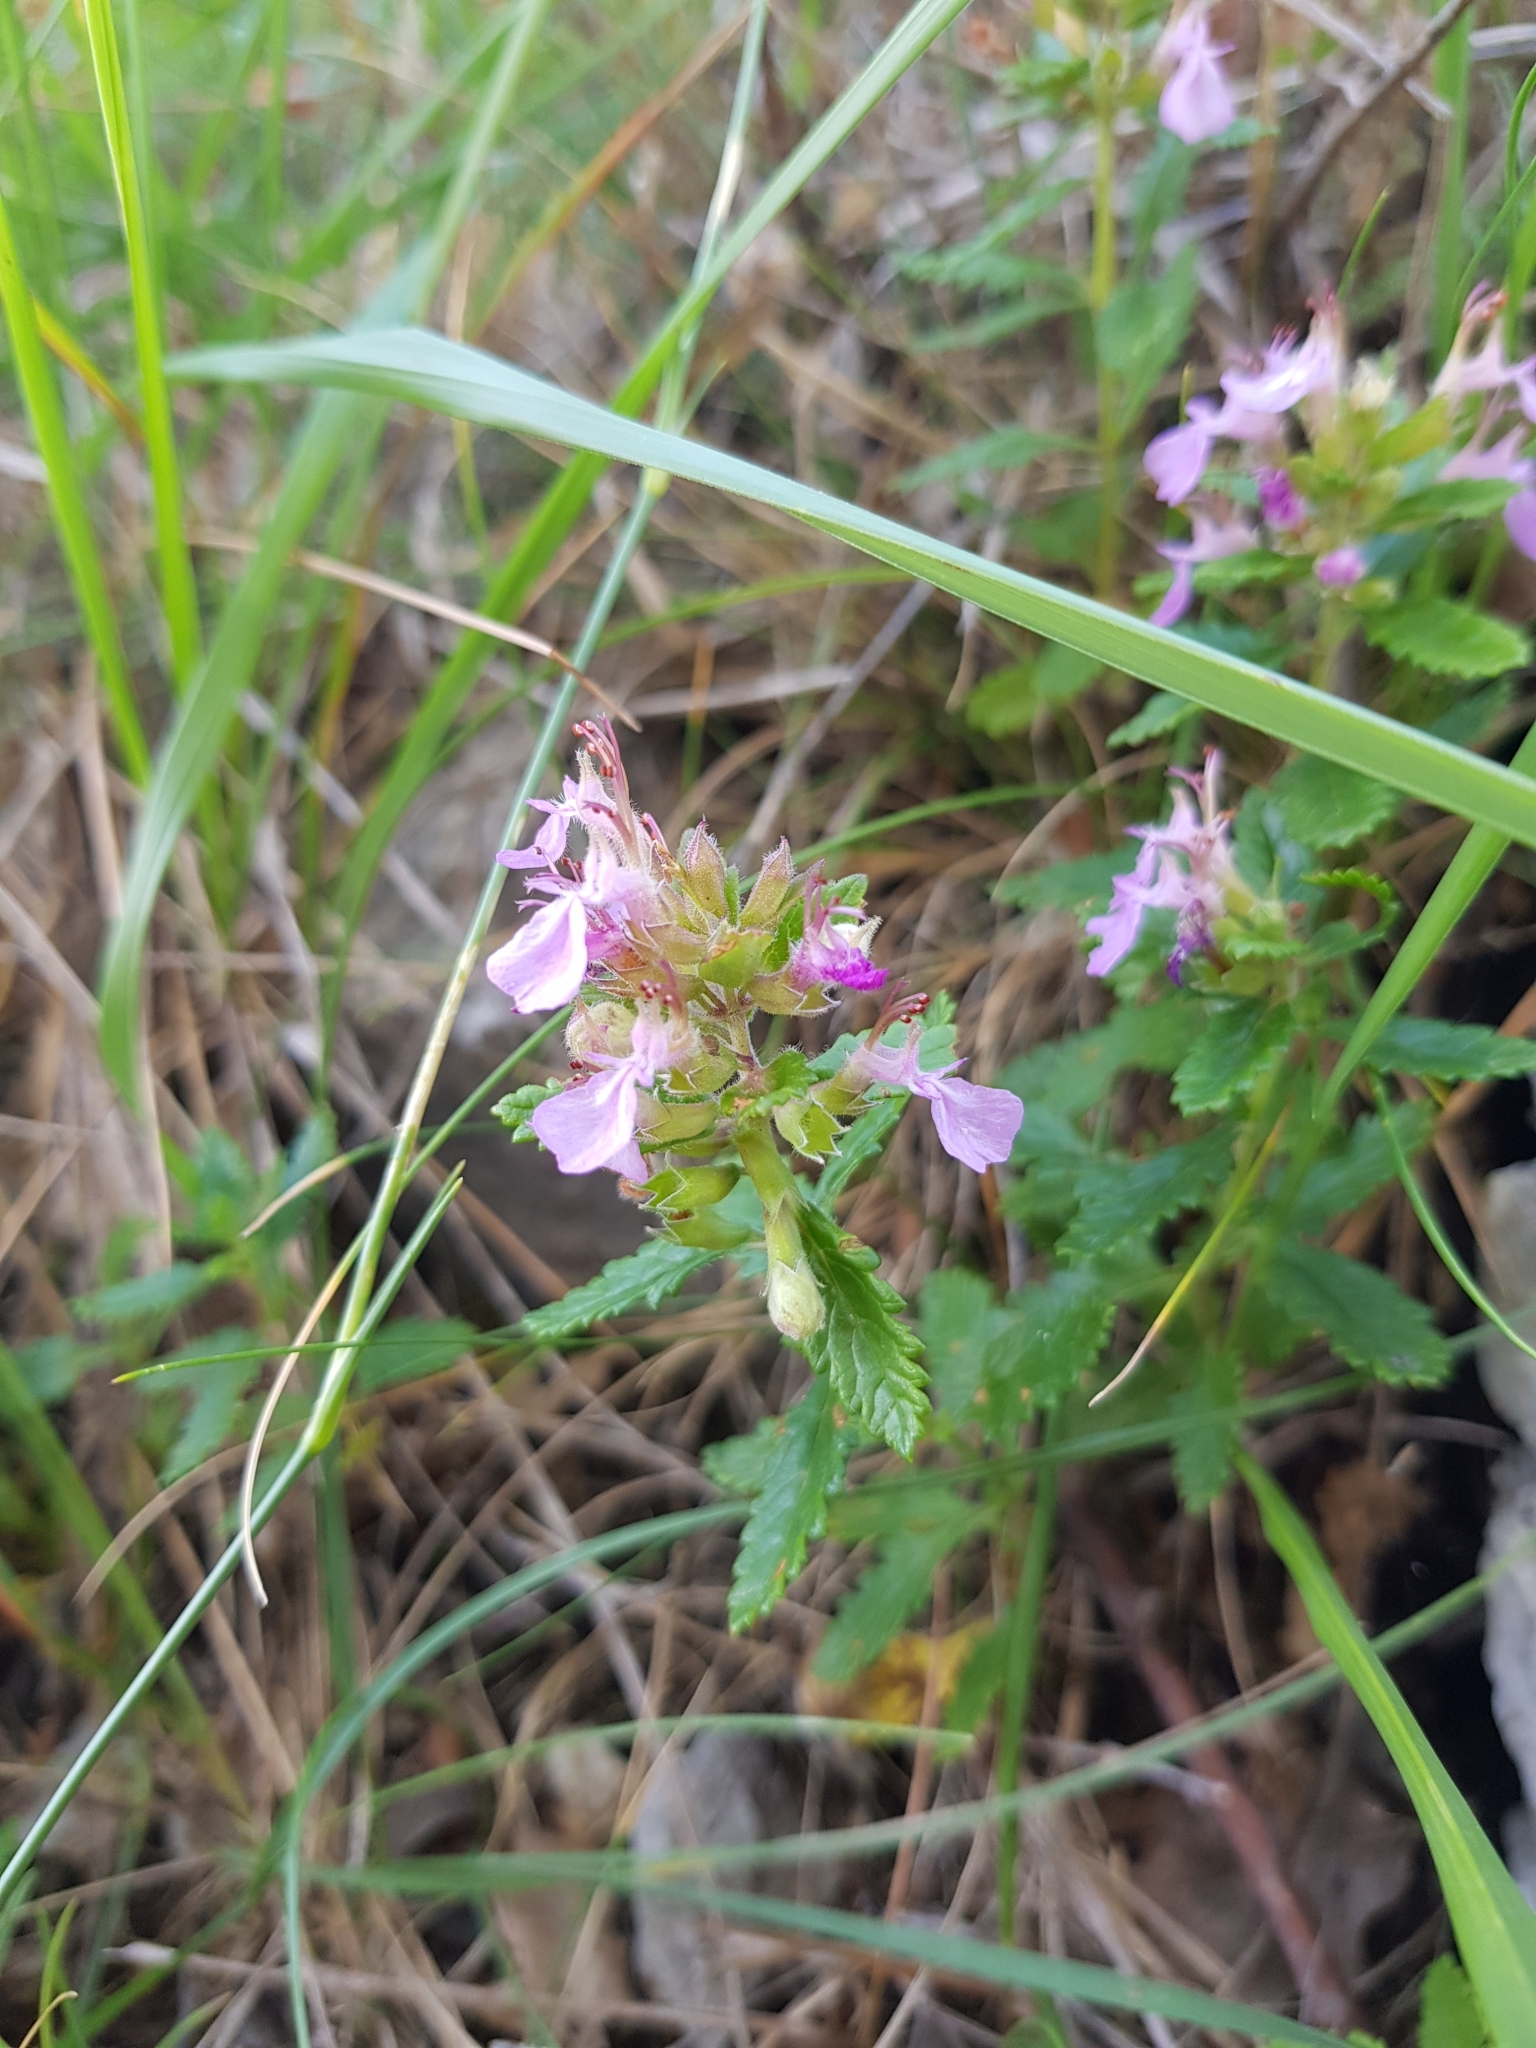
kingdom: Plantae
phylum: Tracheophyta
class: Magnoliopsida
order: Lamiales
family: Lamiaceae
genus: Teucrium
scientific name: Teucrium chamaedrys
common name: Wall germander
